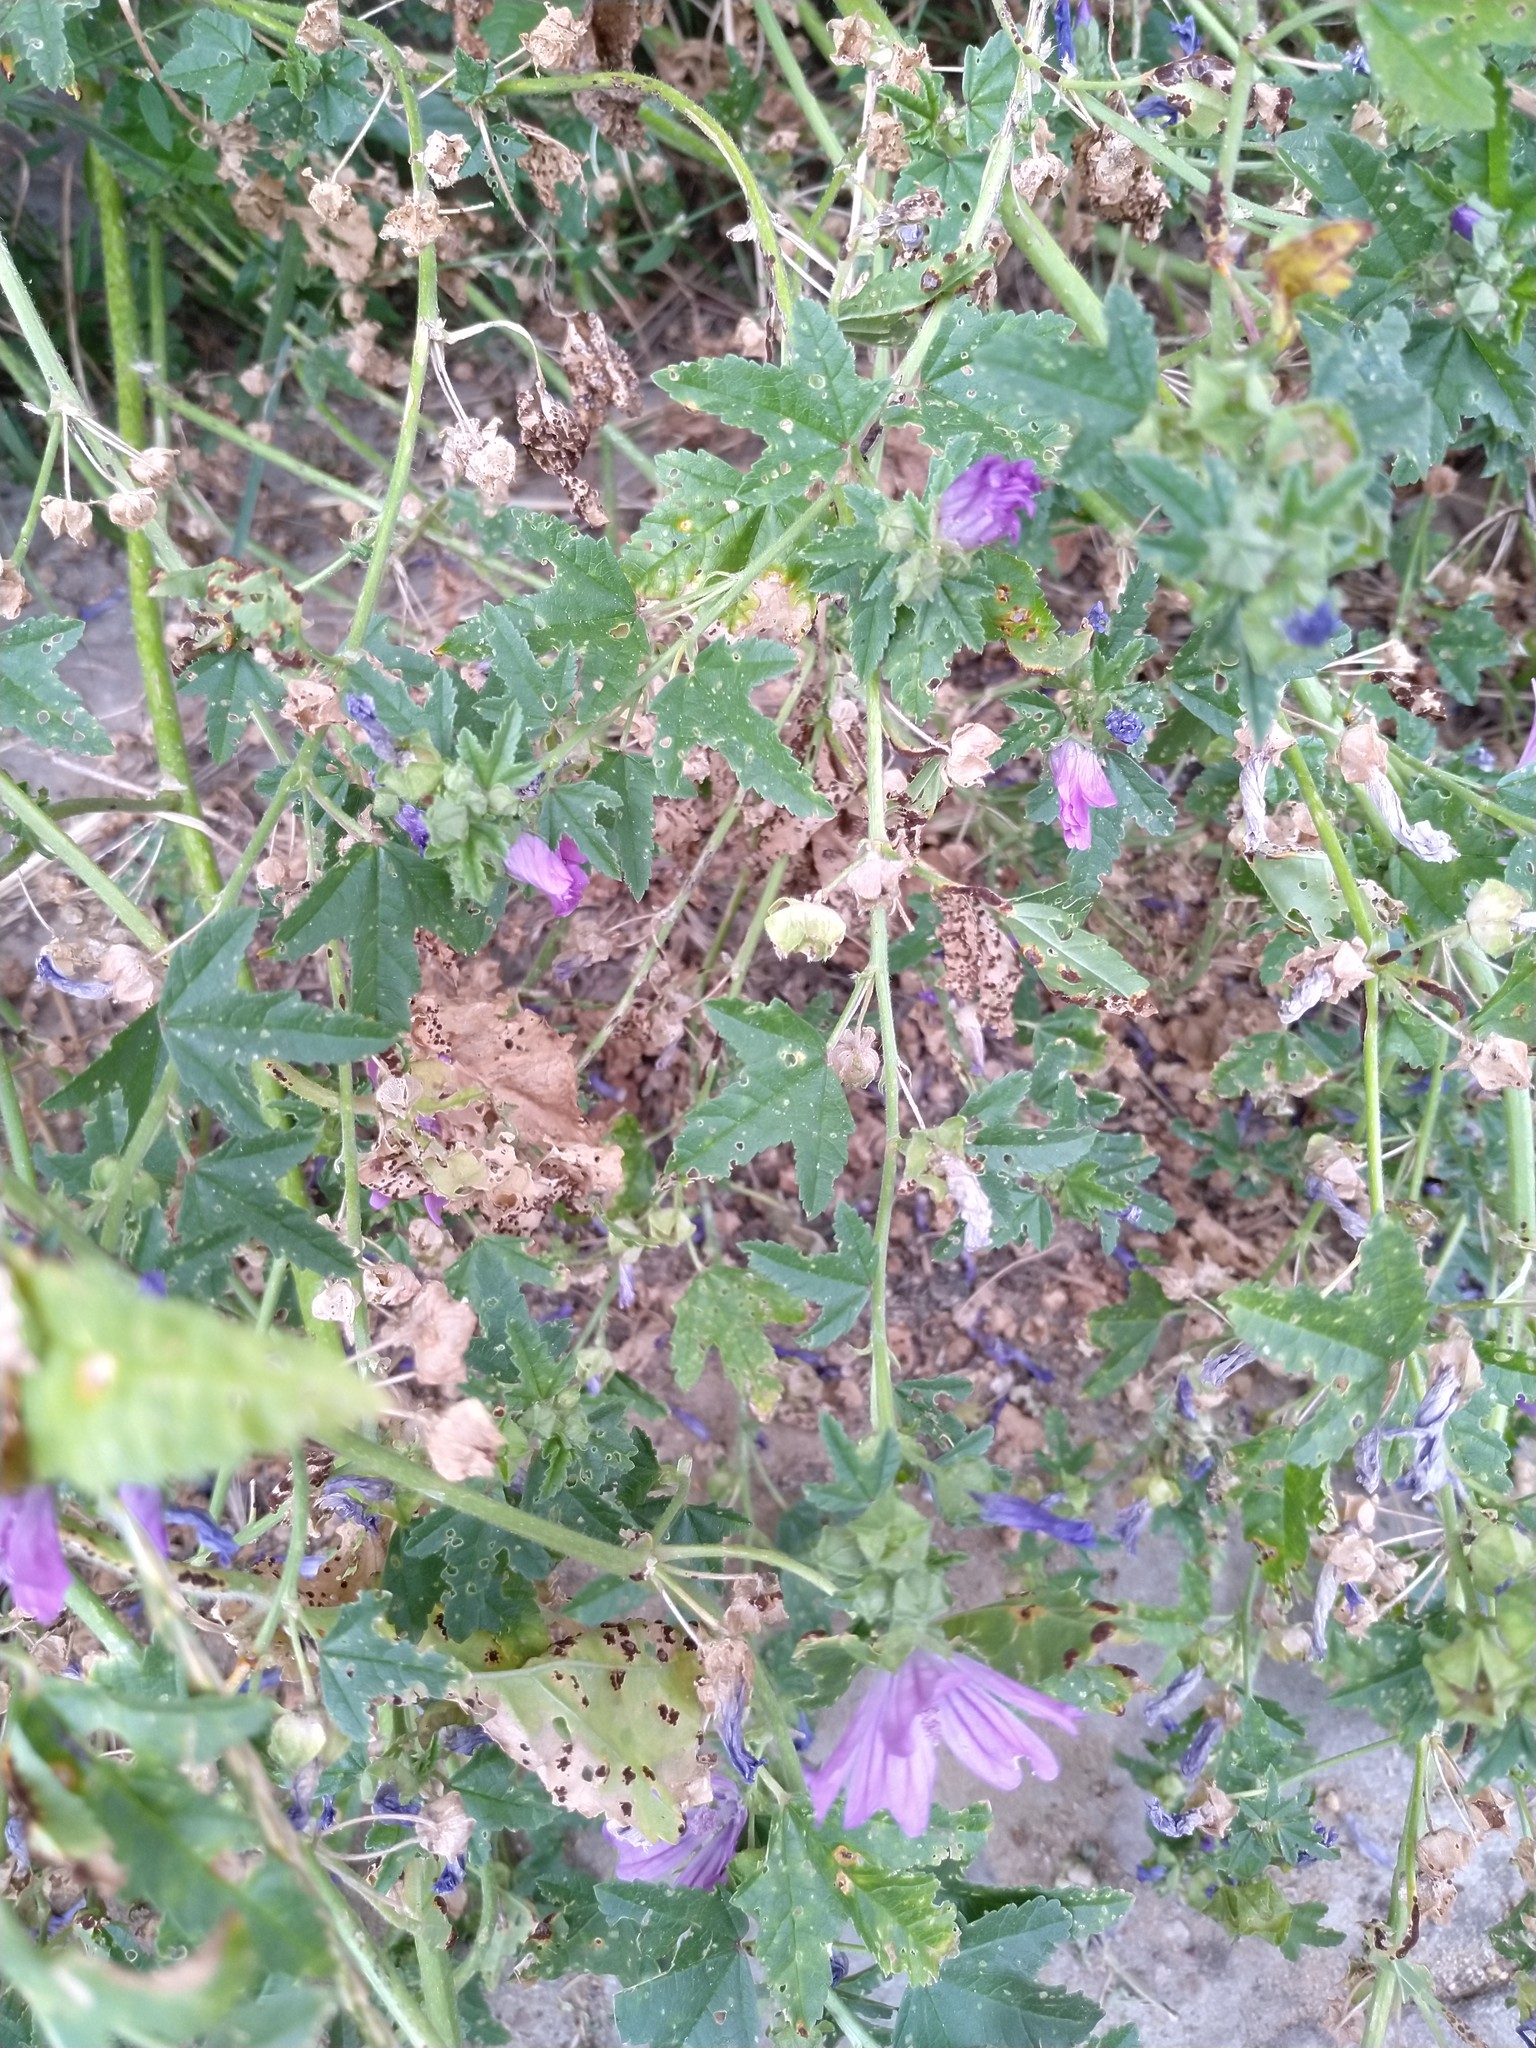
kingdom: Plantae
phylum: Tracheophyta
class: Magnoliopsida
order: Malvales
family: Malvaceae
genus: Malva
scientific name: Malva sylvestris
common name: Common mallow
